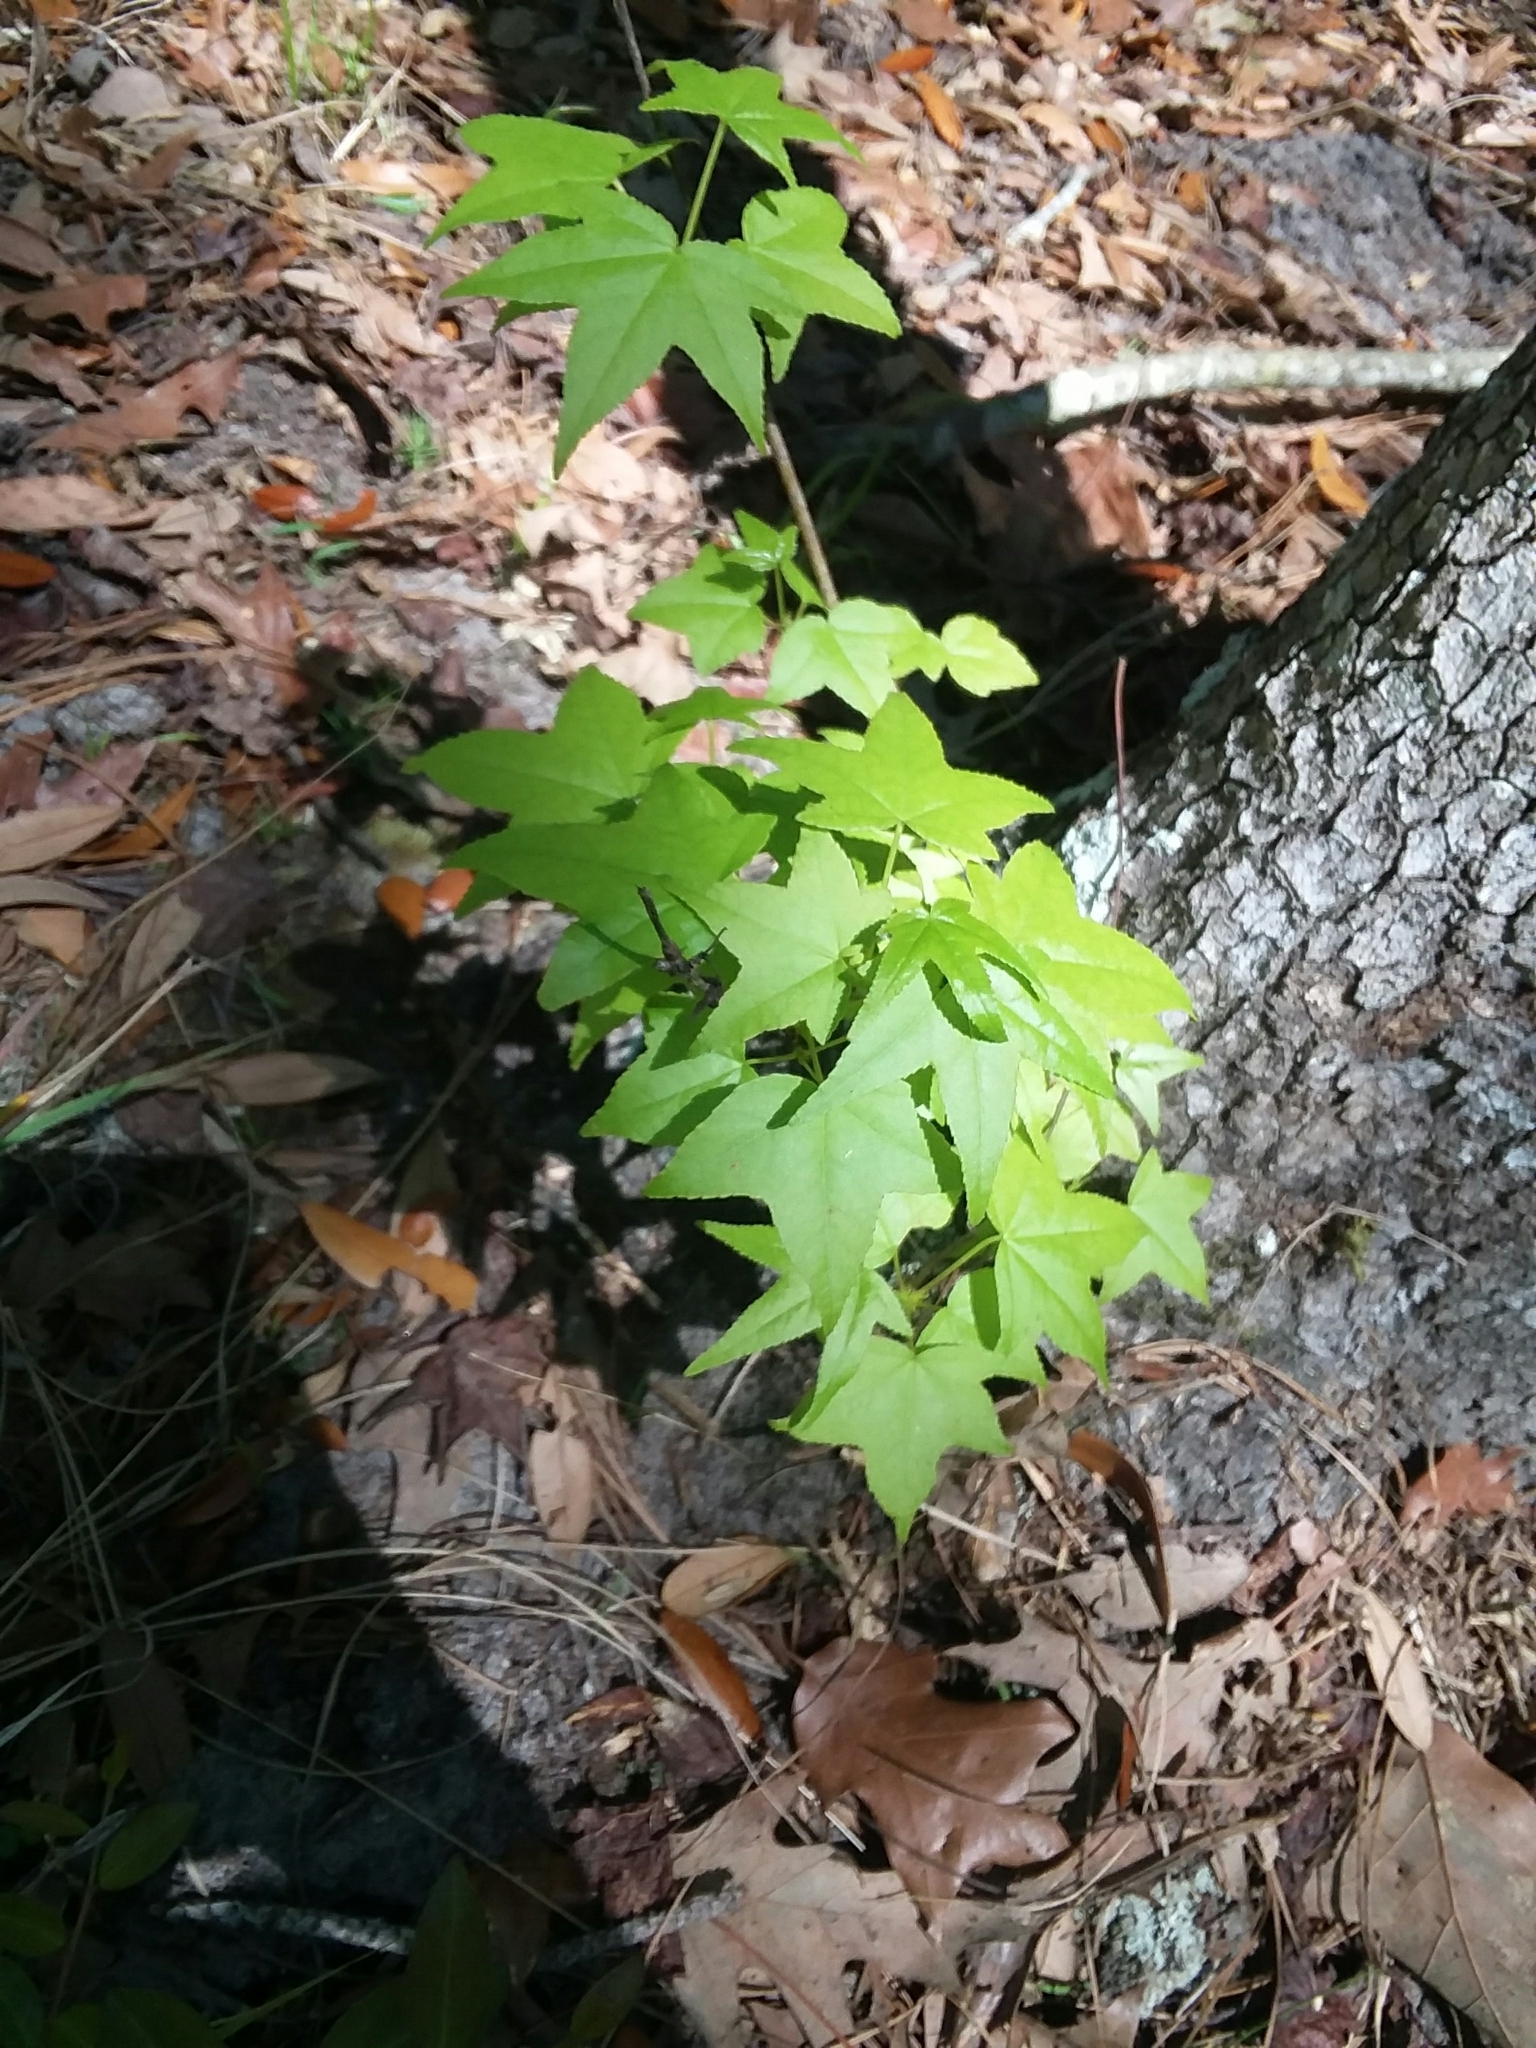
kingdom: Plantae
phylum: Tracheophyta
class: Magnoliopsida
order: Saxifragales
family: Altingiaceae
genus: Liquidambar
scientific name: Liquidambar styraciflua
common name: Sweet gum
